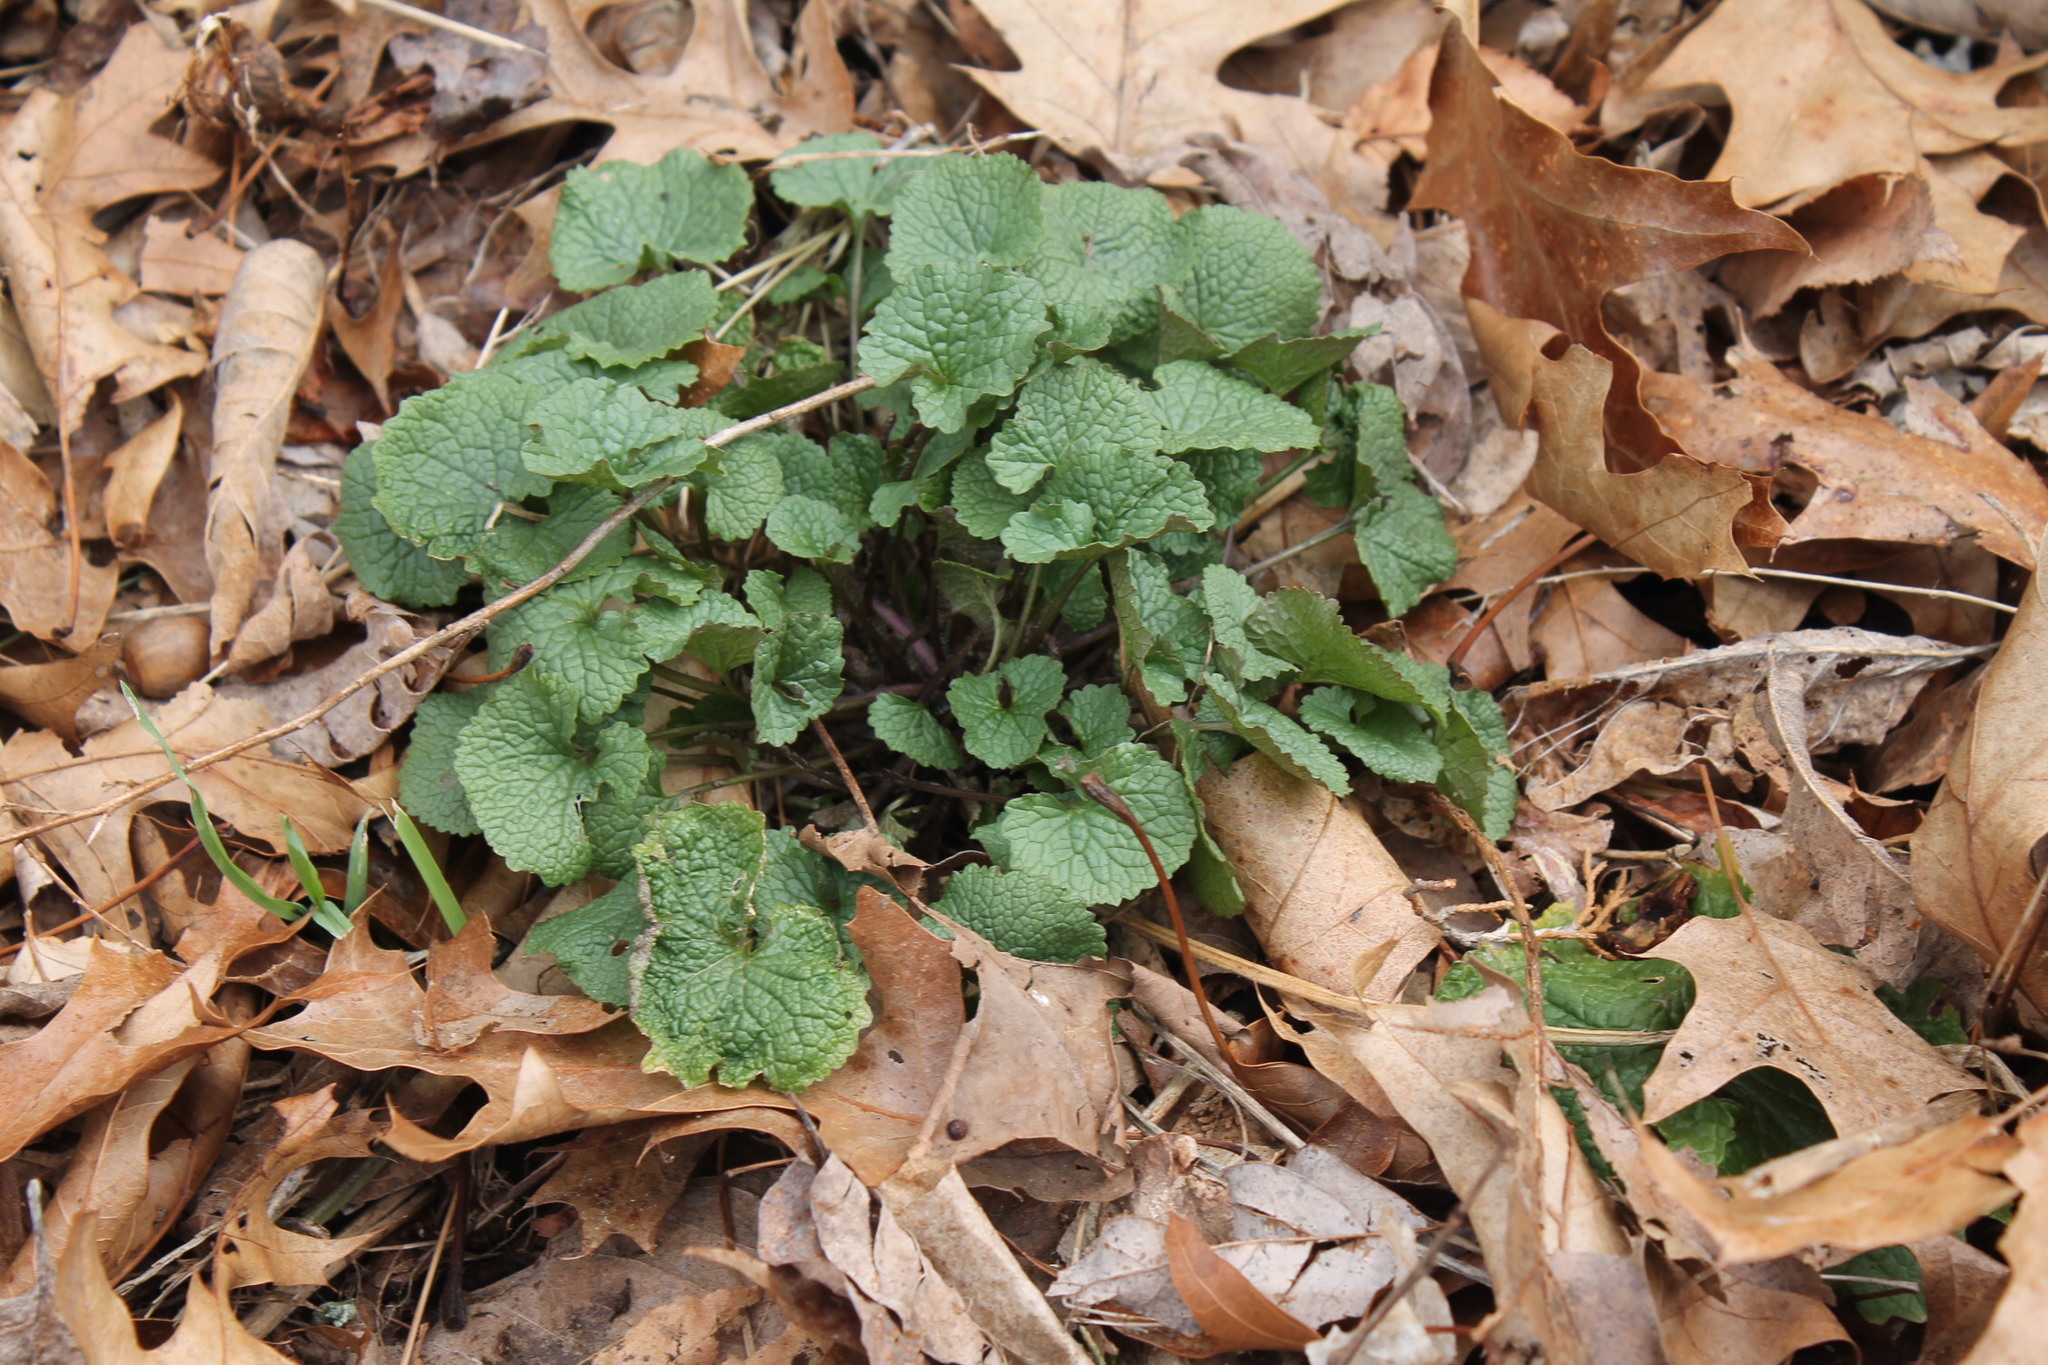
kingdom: Plantae
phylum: Tracheophyta
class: Magnoliopsida
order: Brassicales
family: Brassicaceae
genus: Alliaria
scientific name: Alliaria petiolata
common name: Garlic mustard
